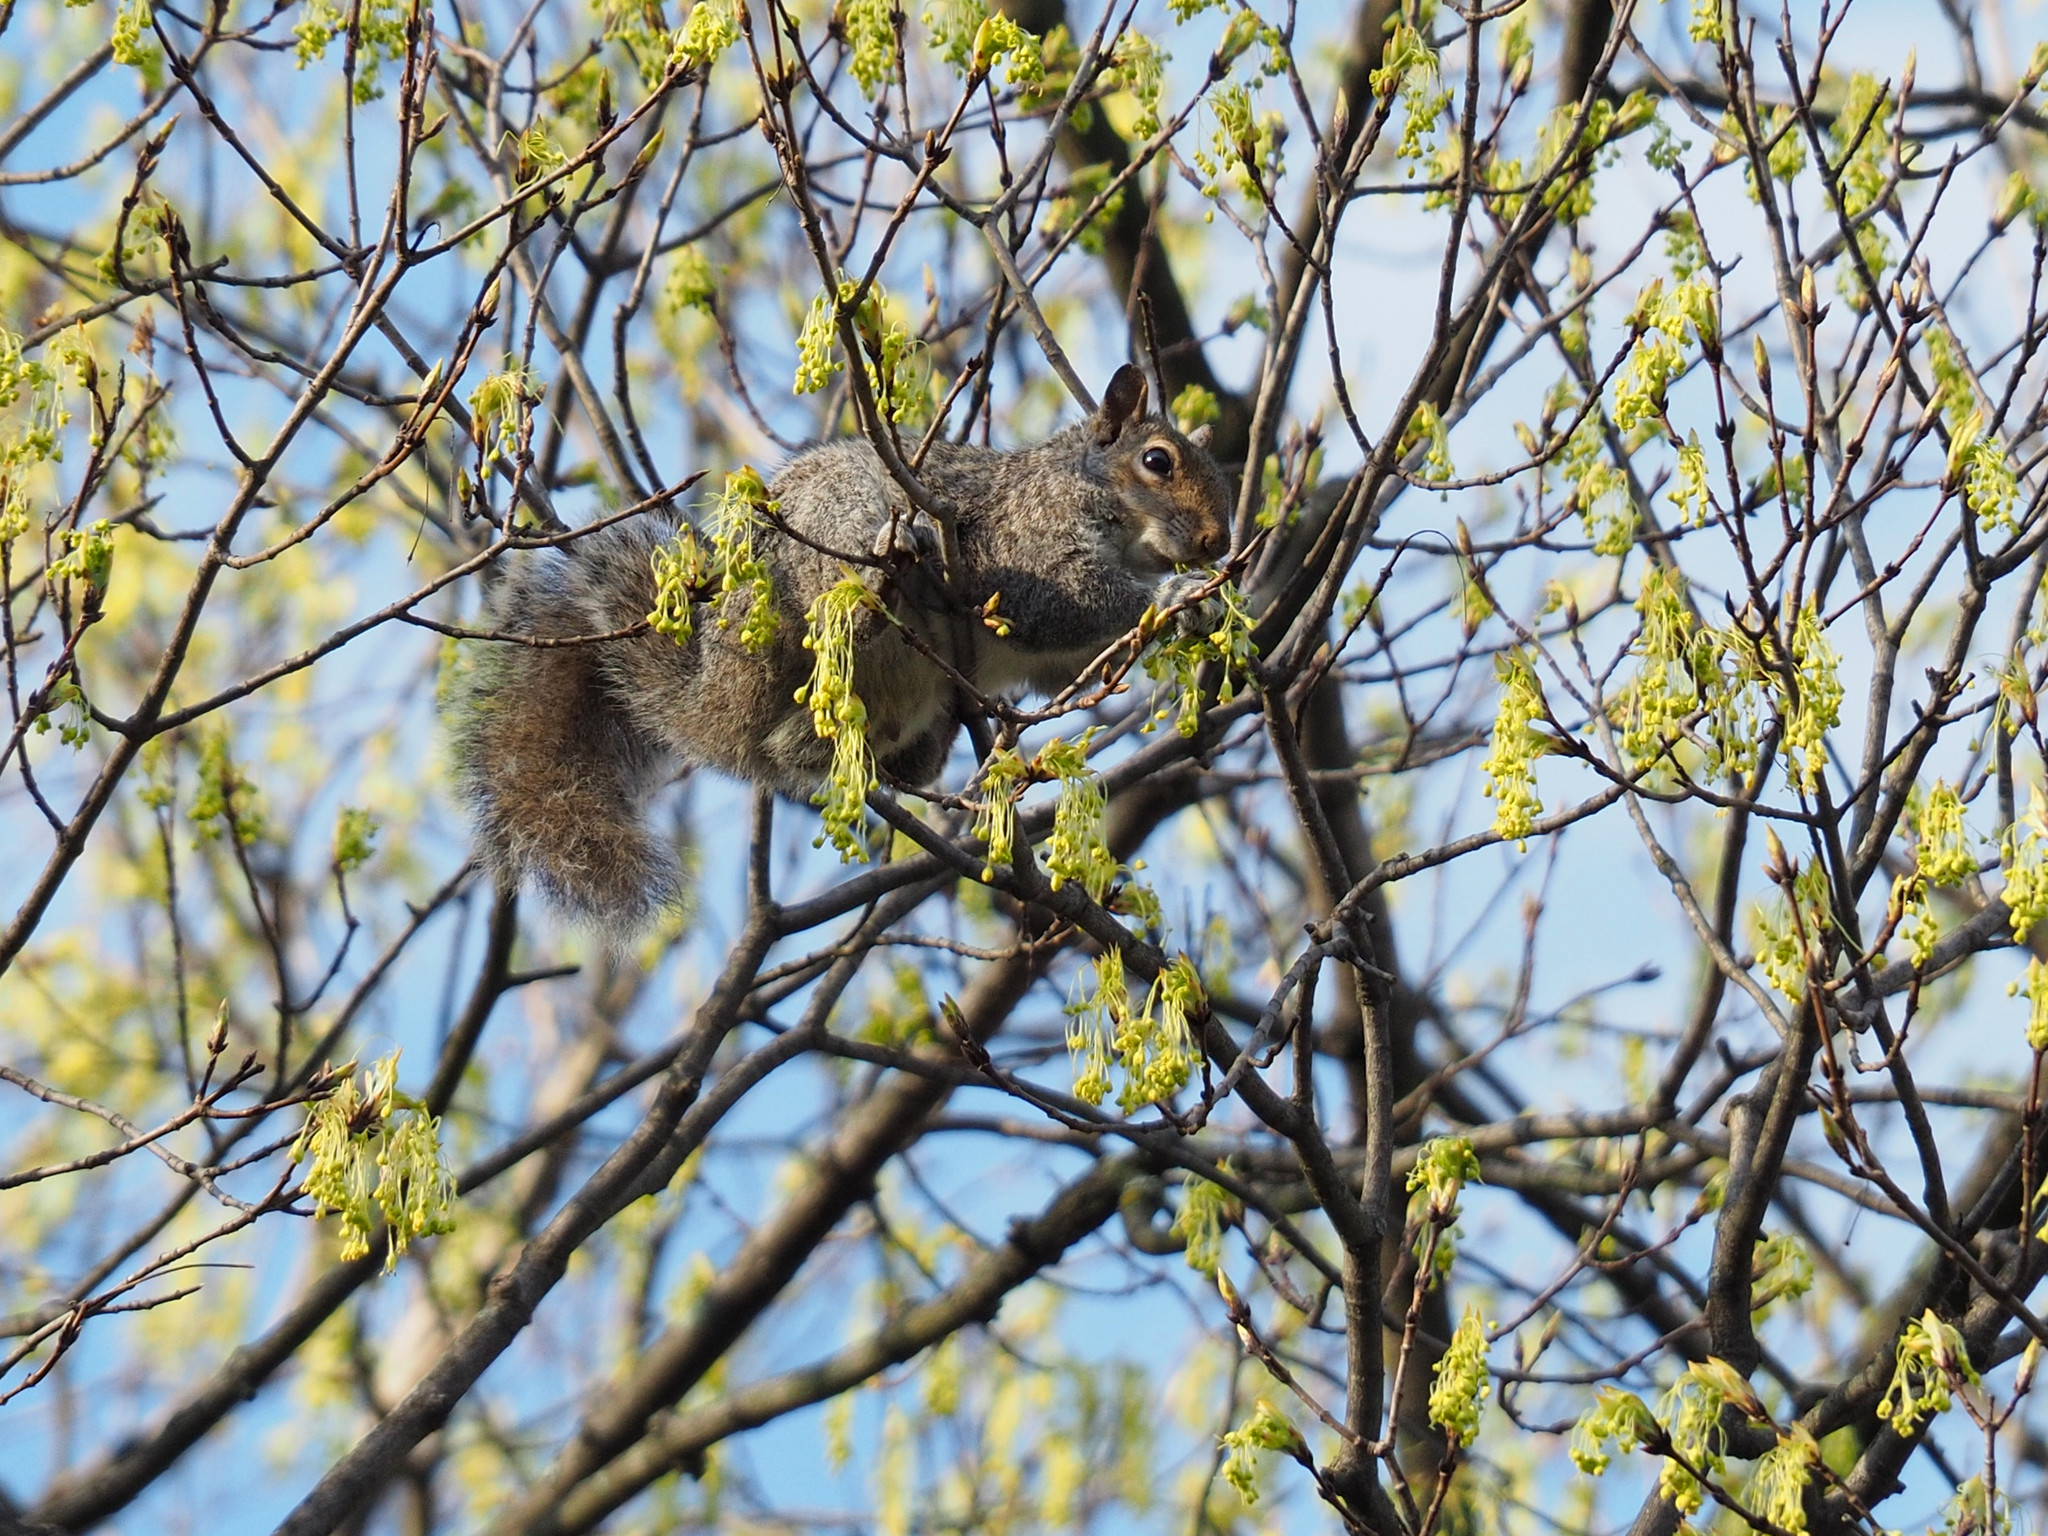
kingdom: Animalia
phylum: Chordata
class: Mammalia
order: Rodentia
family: Sciuridae
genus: Sciurus
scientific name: Sciurus carolinensis
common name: Eastern gray squirrel
